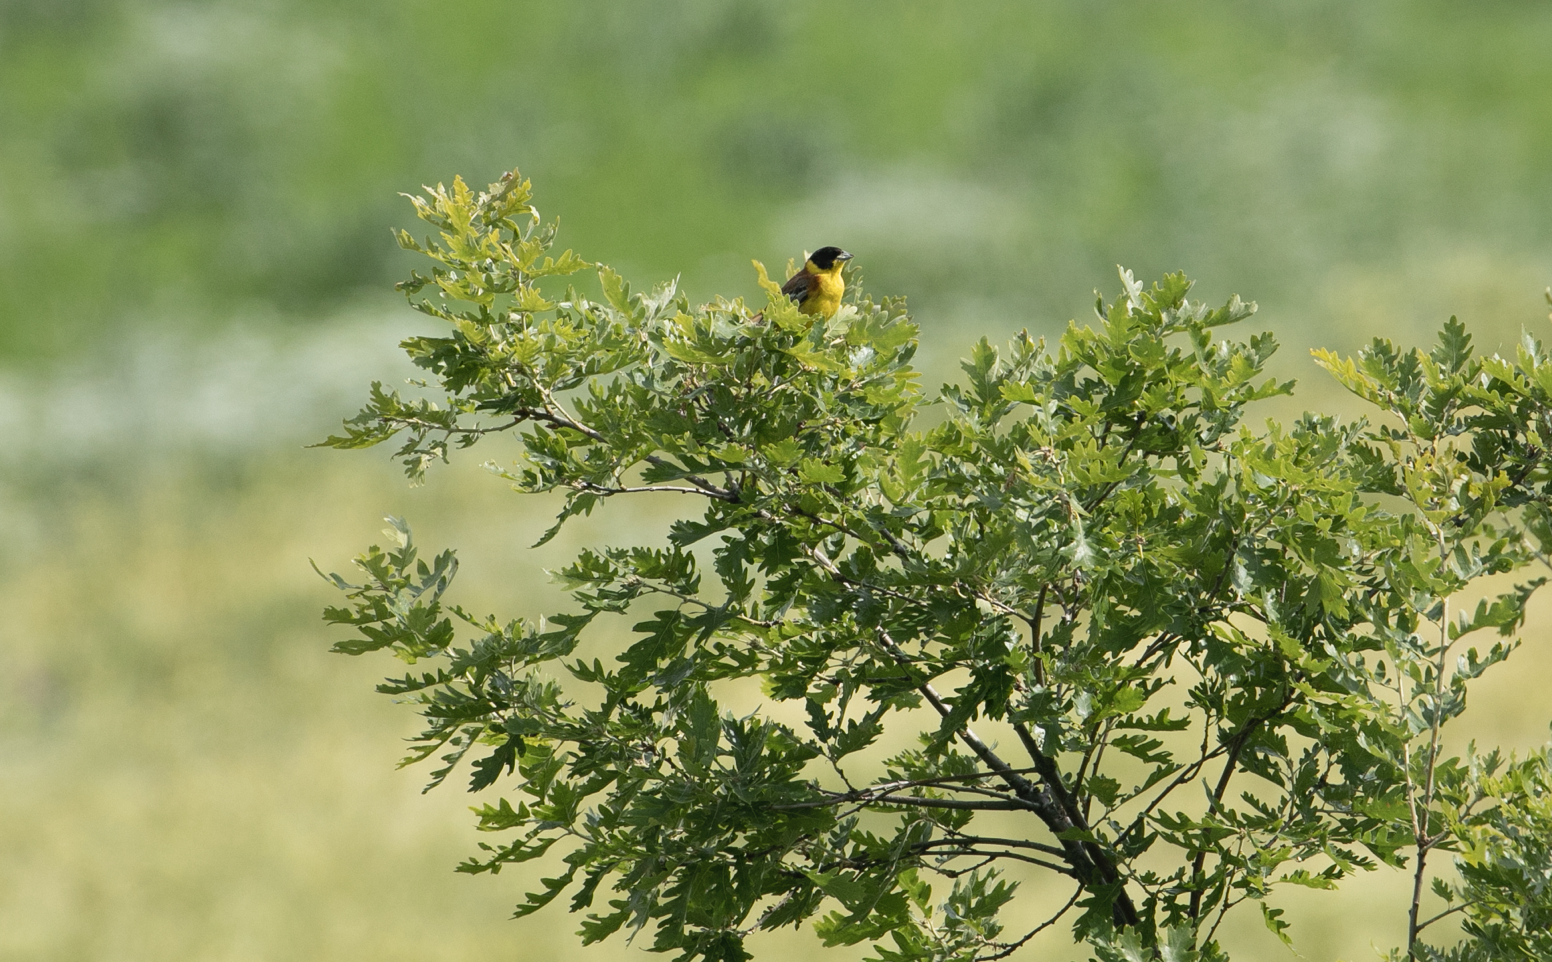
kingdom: Animalia
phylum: Chordata
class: Aves
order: Passeriformes
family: Emberizidae
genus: Emberiza
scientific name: Emberiza melanocephala
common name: Black-headed bunting
